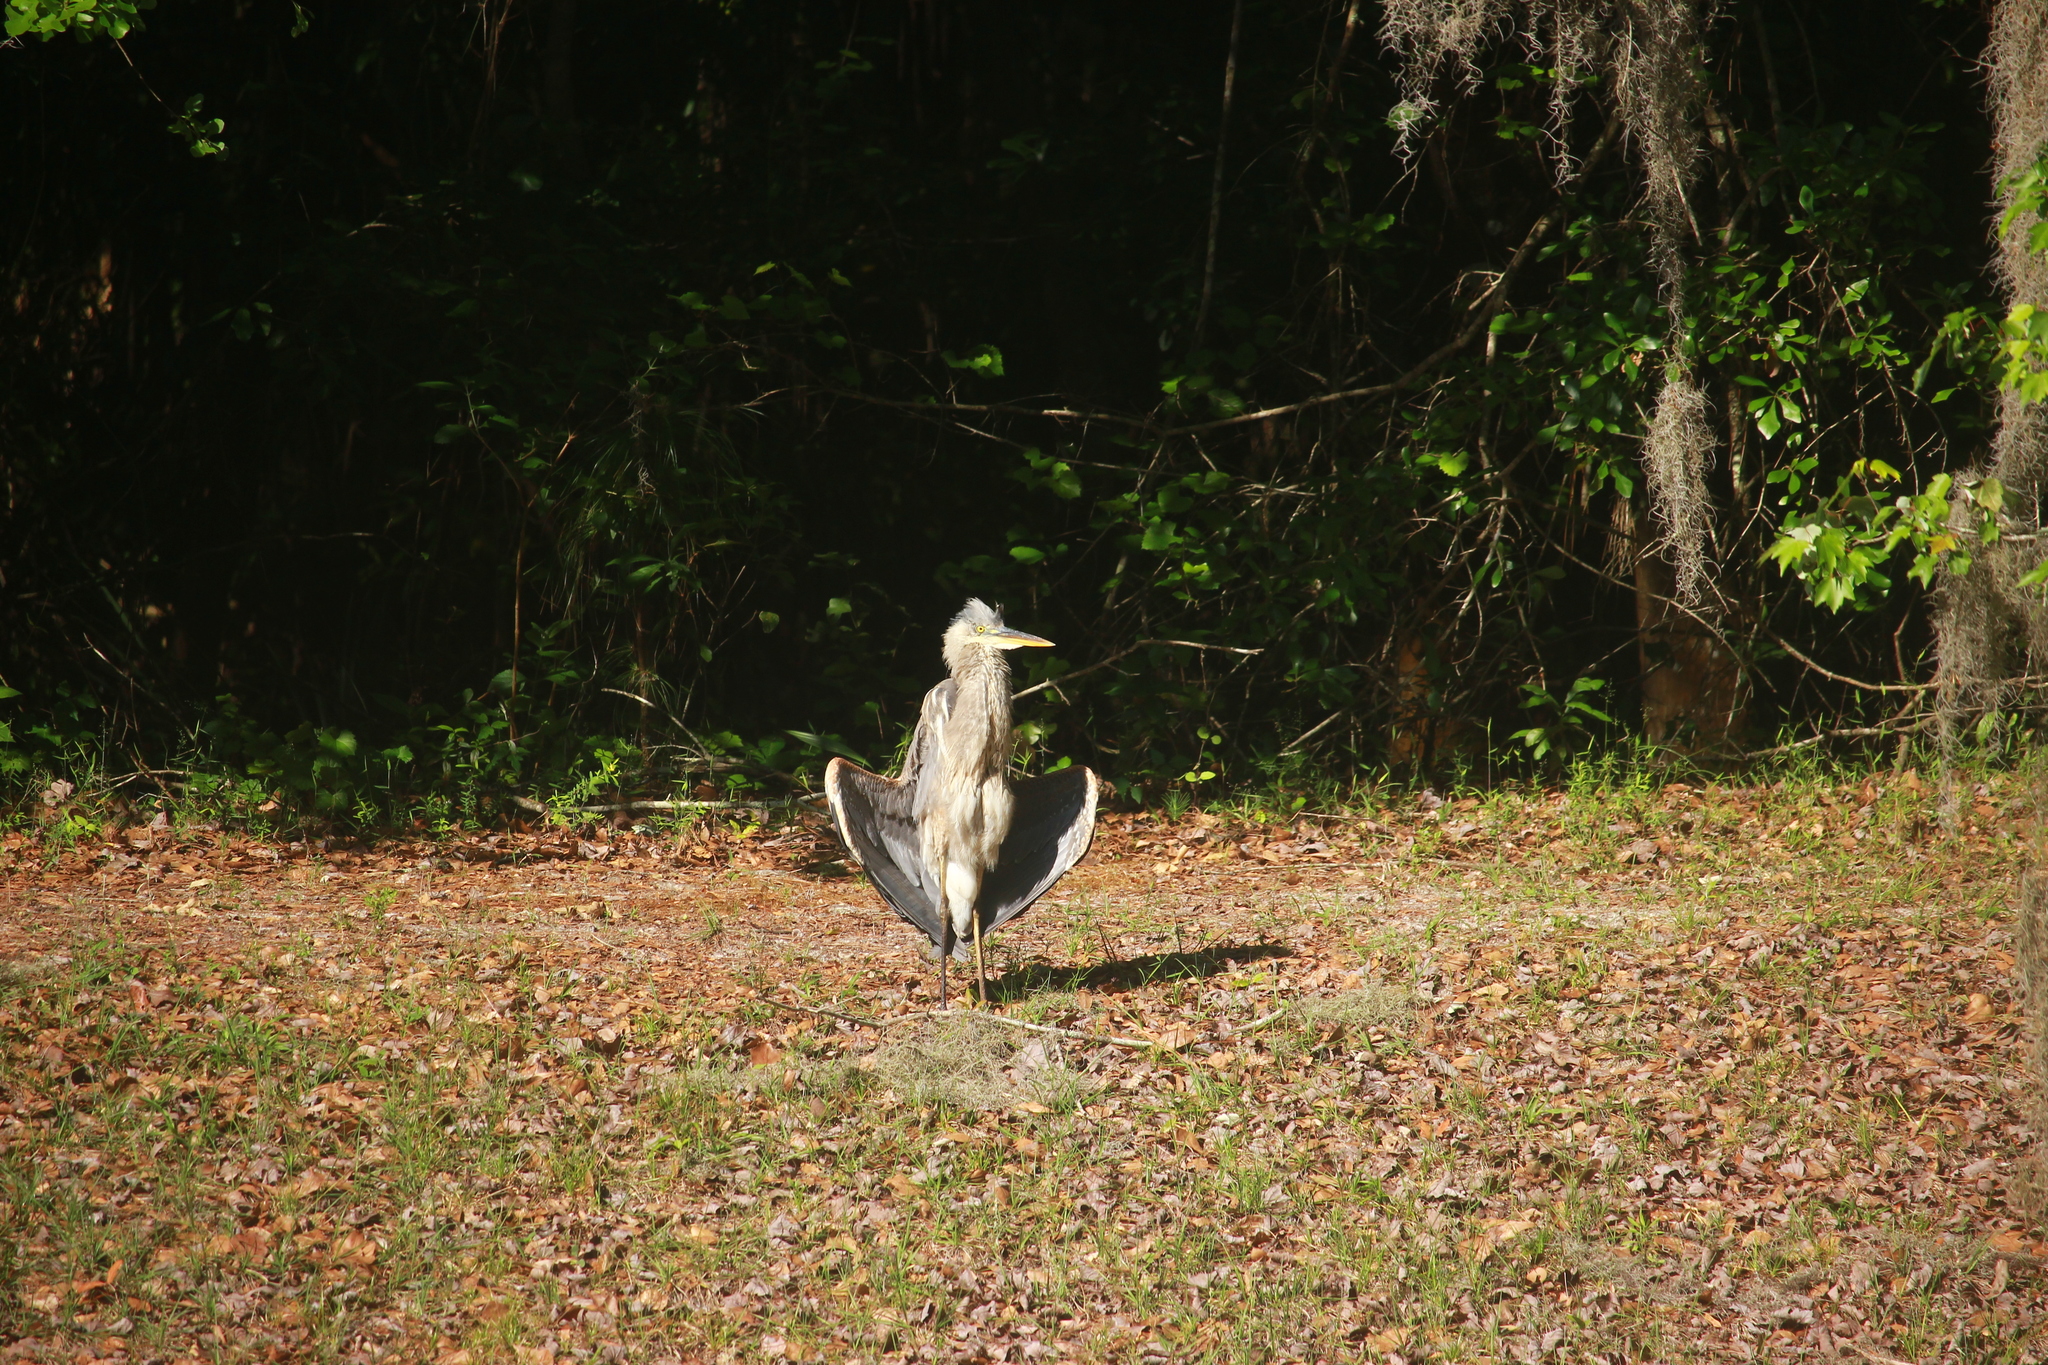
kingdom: Animalia
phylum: Chordata
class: Aves
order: Pelecaniformes
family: Ardeidae
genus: Ardea
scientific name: Ardea herodias
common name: Great blue heron
